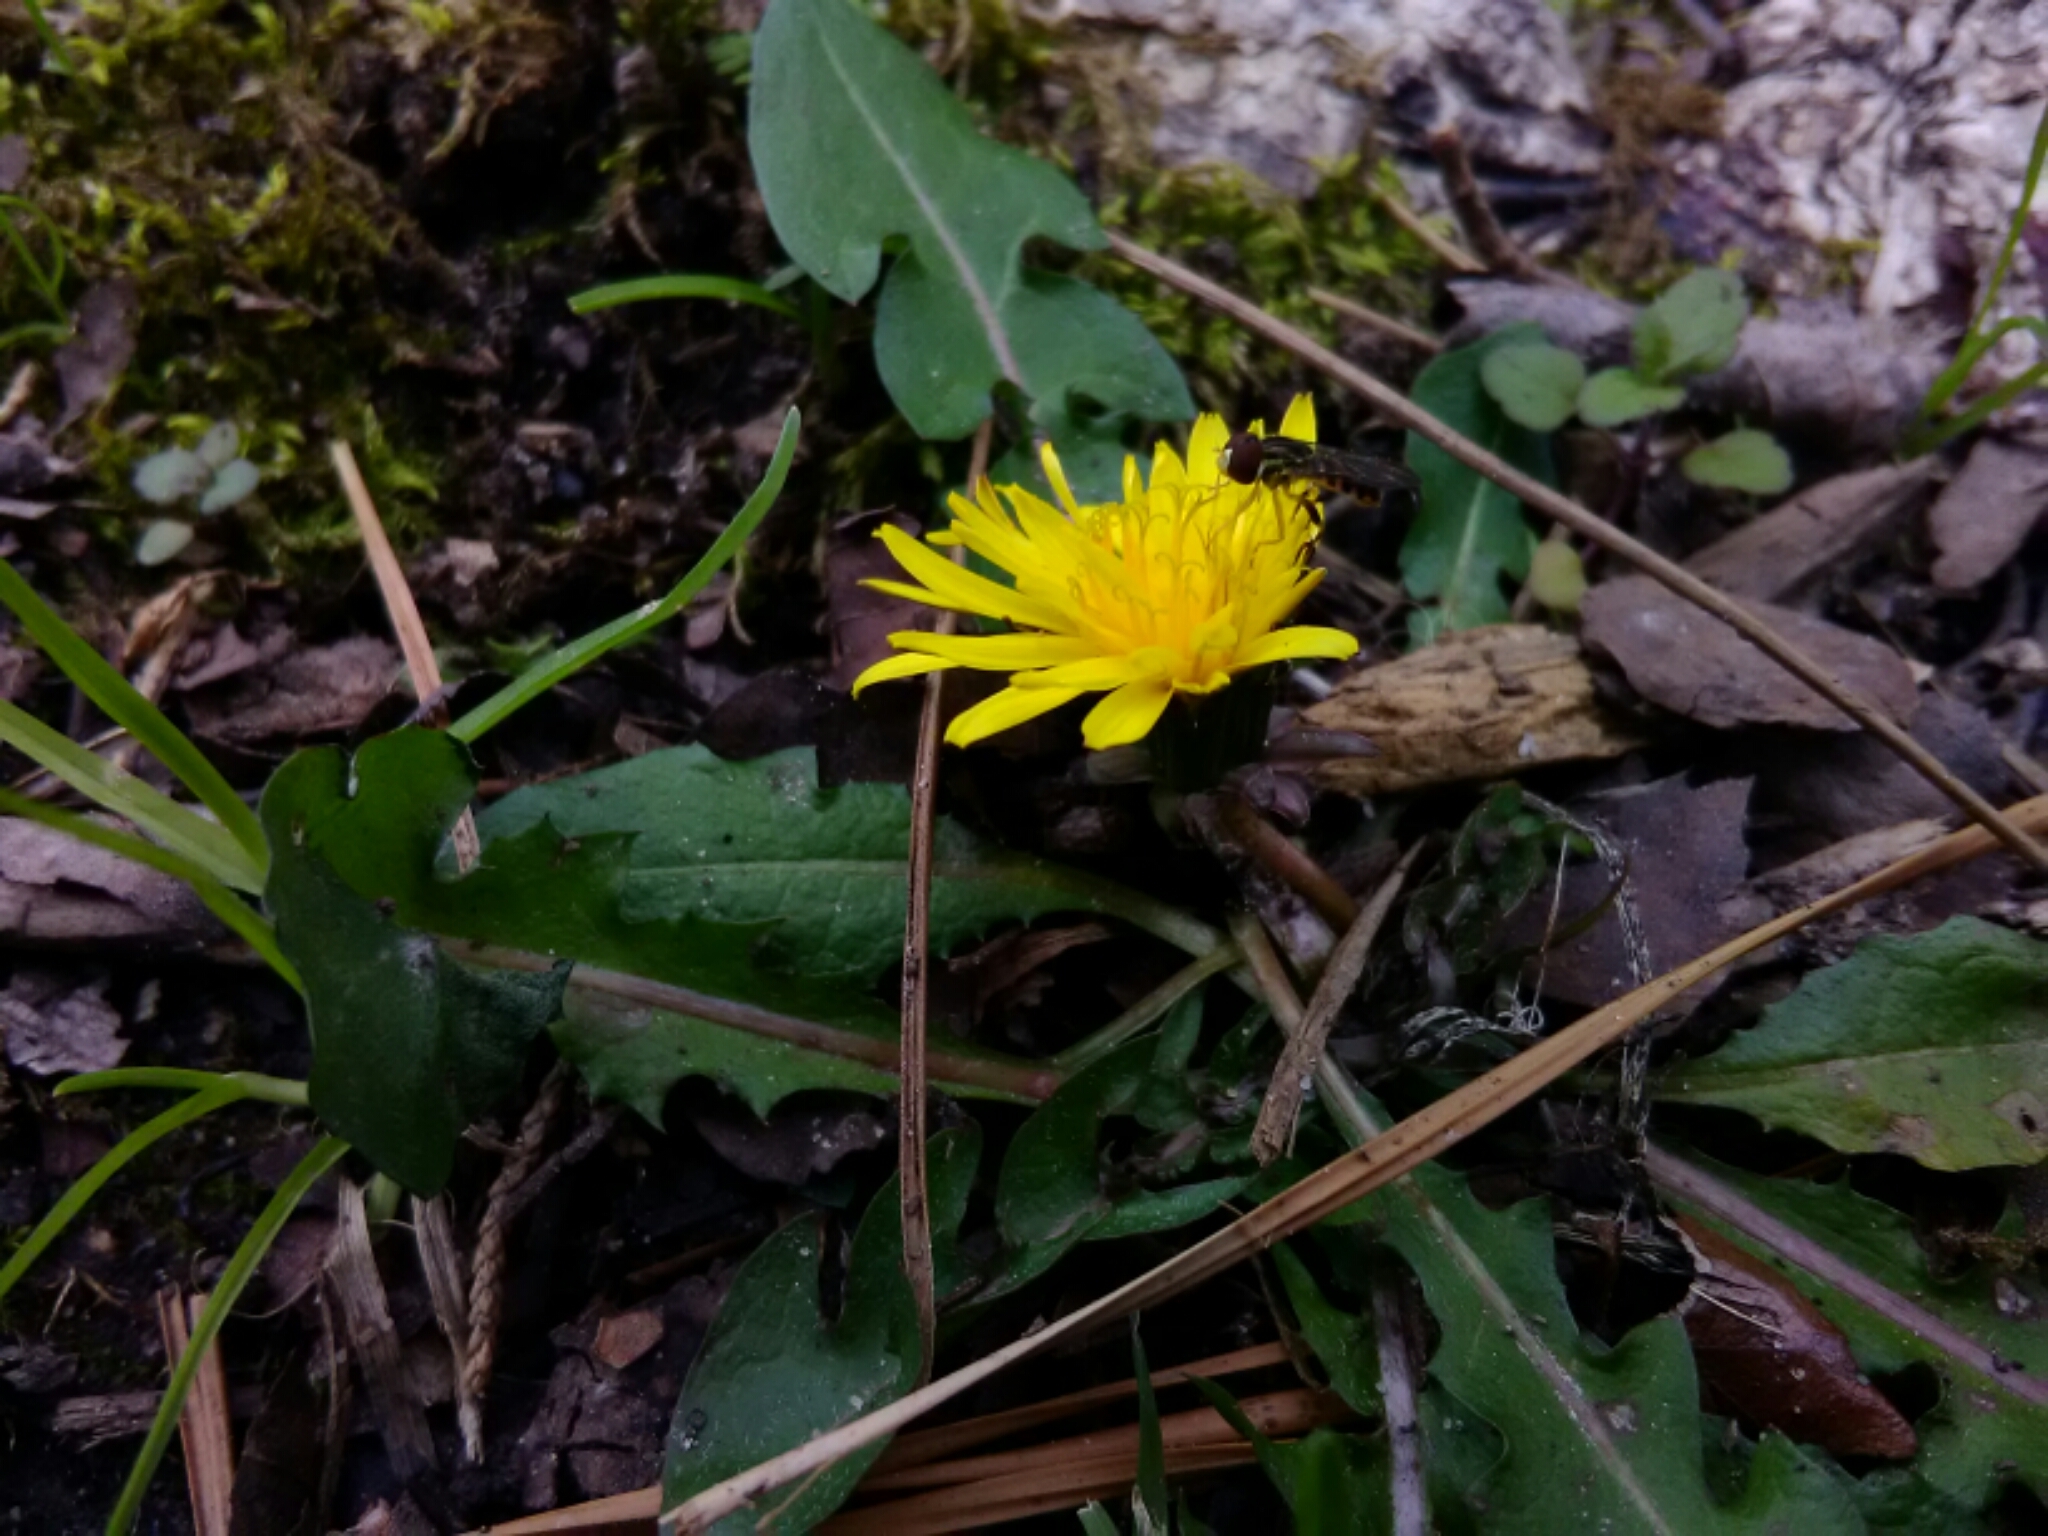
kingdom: Animalia
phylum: Arthropoda
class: Insecta
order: Diptera
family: Syrphidae
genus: Toxomerus
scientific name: Toxomerus geminatus
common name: Eastern calligrapher
